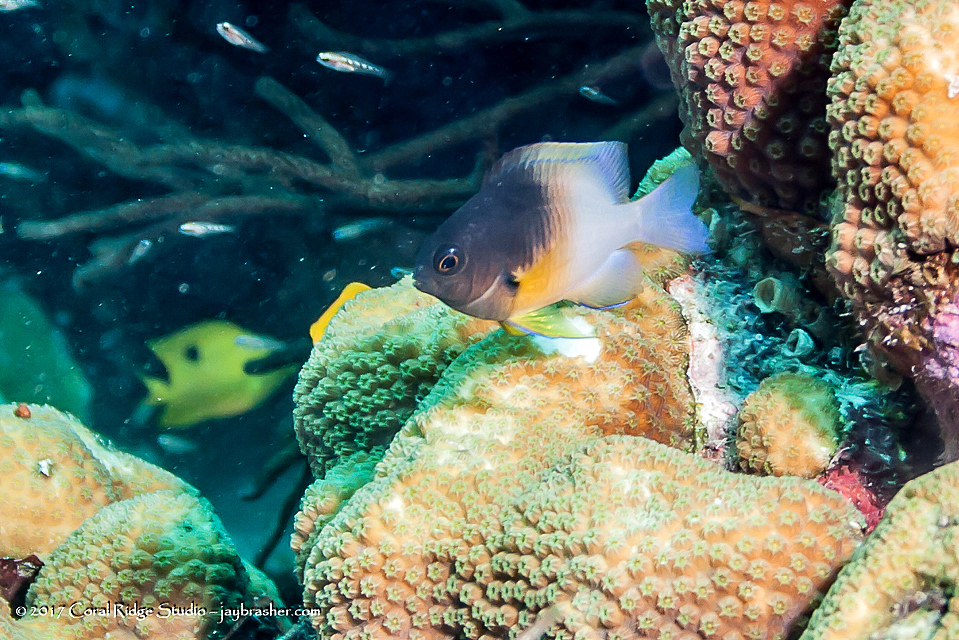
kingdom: Animalia
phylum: Chordata
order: Perciformes
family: Pomacentridae
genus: Stegastes
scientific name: Stegastes partitus
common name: Bicolor damselfish
